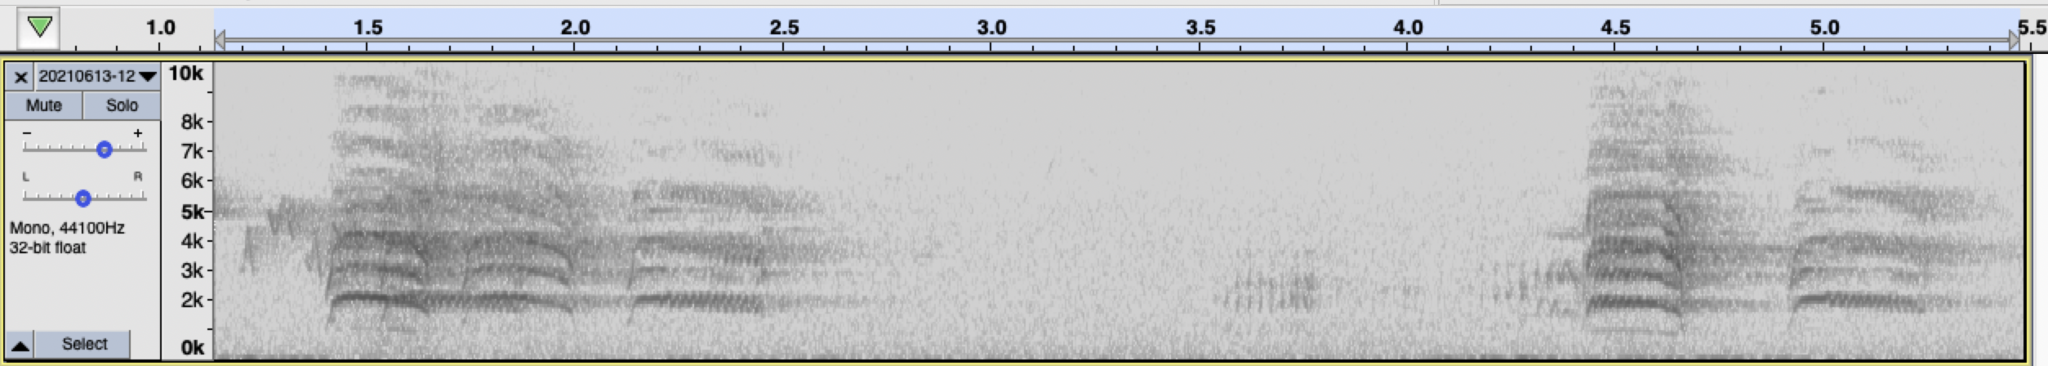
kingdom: Animalia
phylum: Chordata
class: Aves
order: Psittaciformes
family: Psittacidae
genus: Nandayus
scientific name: Nandayus nenday
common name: Nanday parakeet
